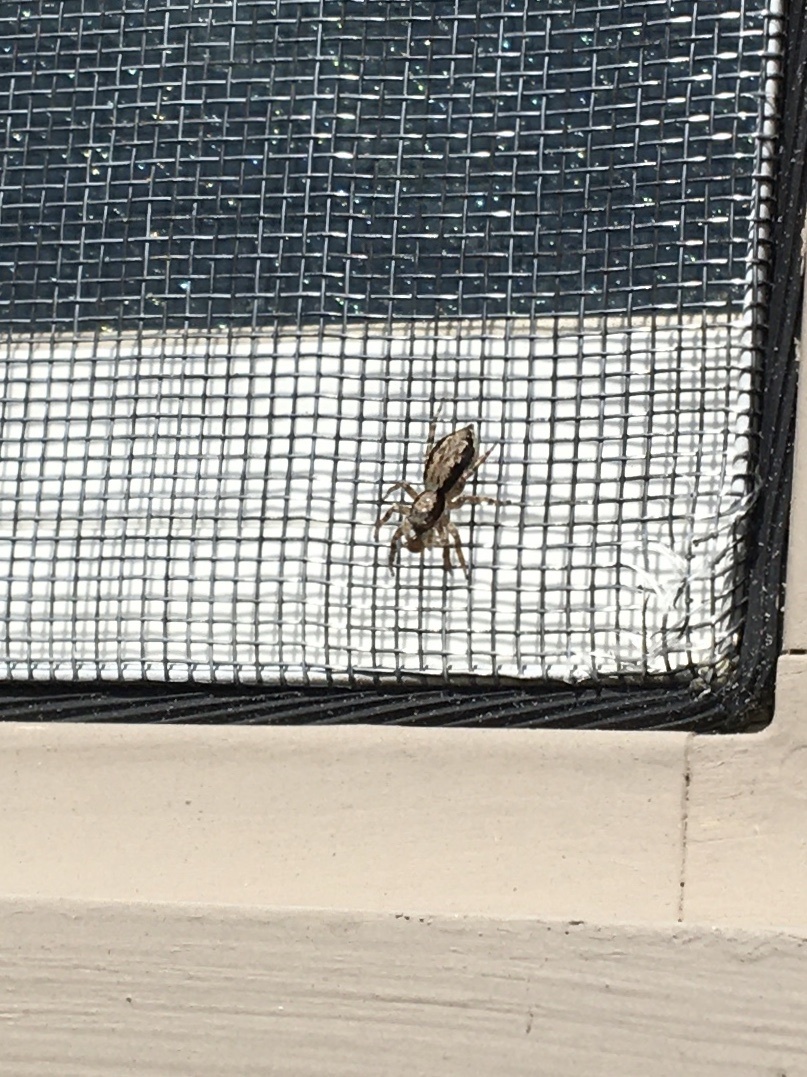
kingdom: Animalia
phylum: Arthropoda
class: Arachnida
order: Araneae
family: Salticidae
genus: Menemerus
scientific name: Menemerus bivittatus
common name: Gray wall jumper
